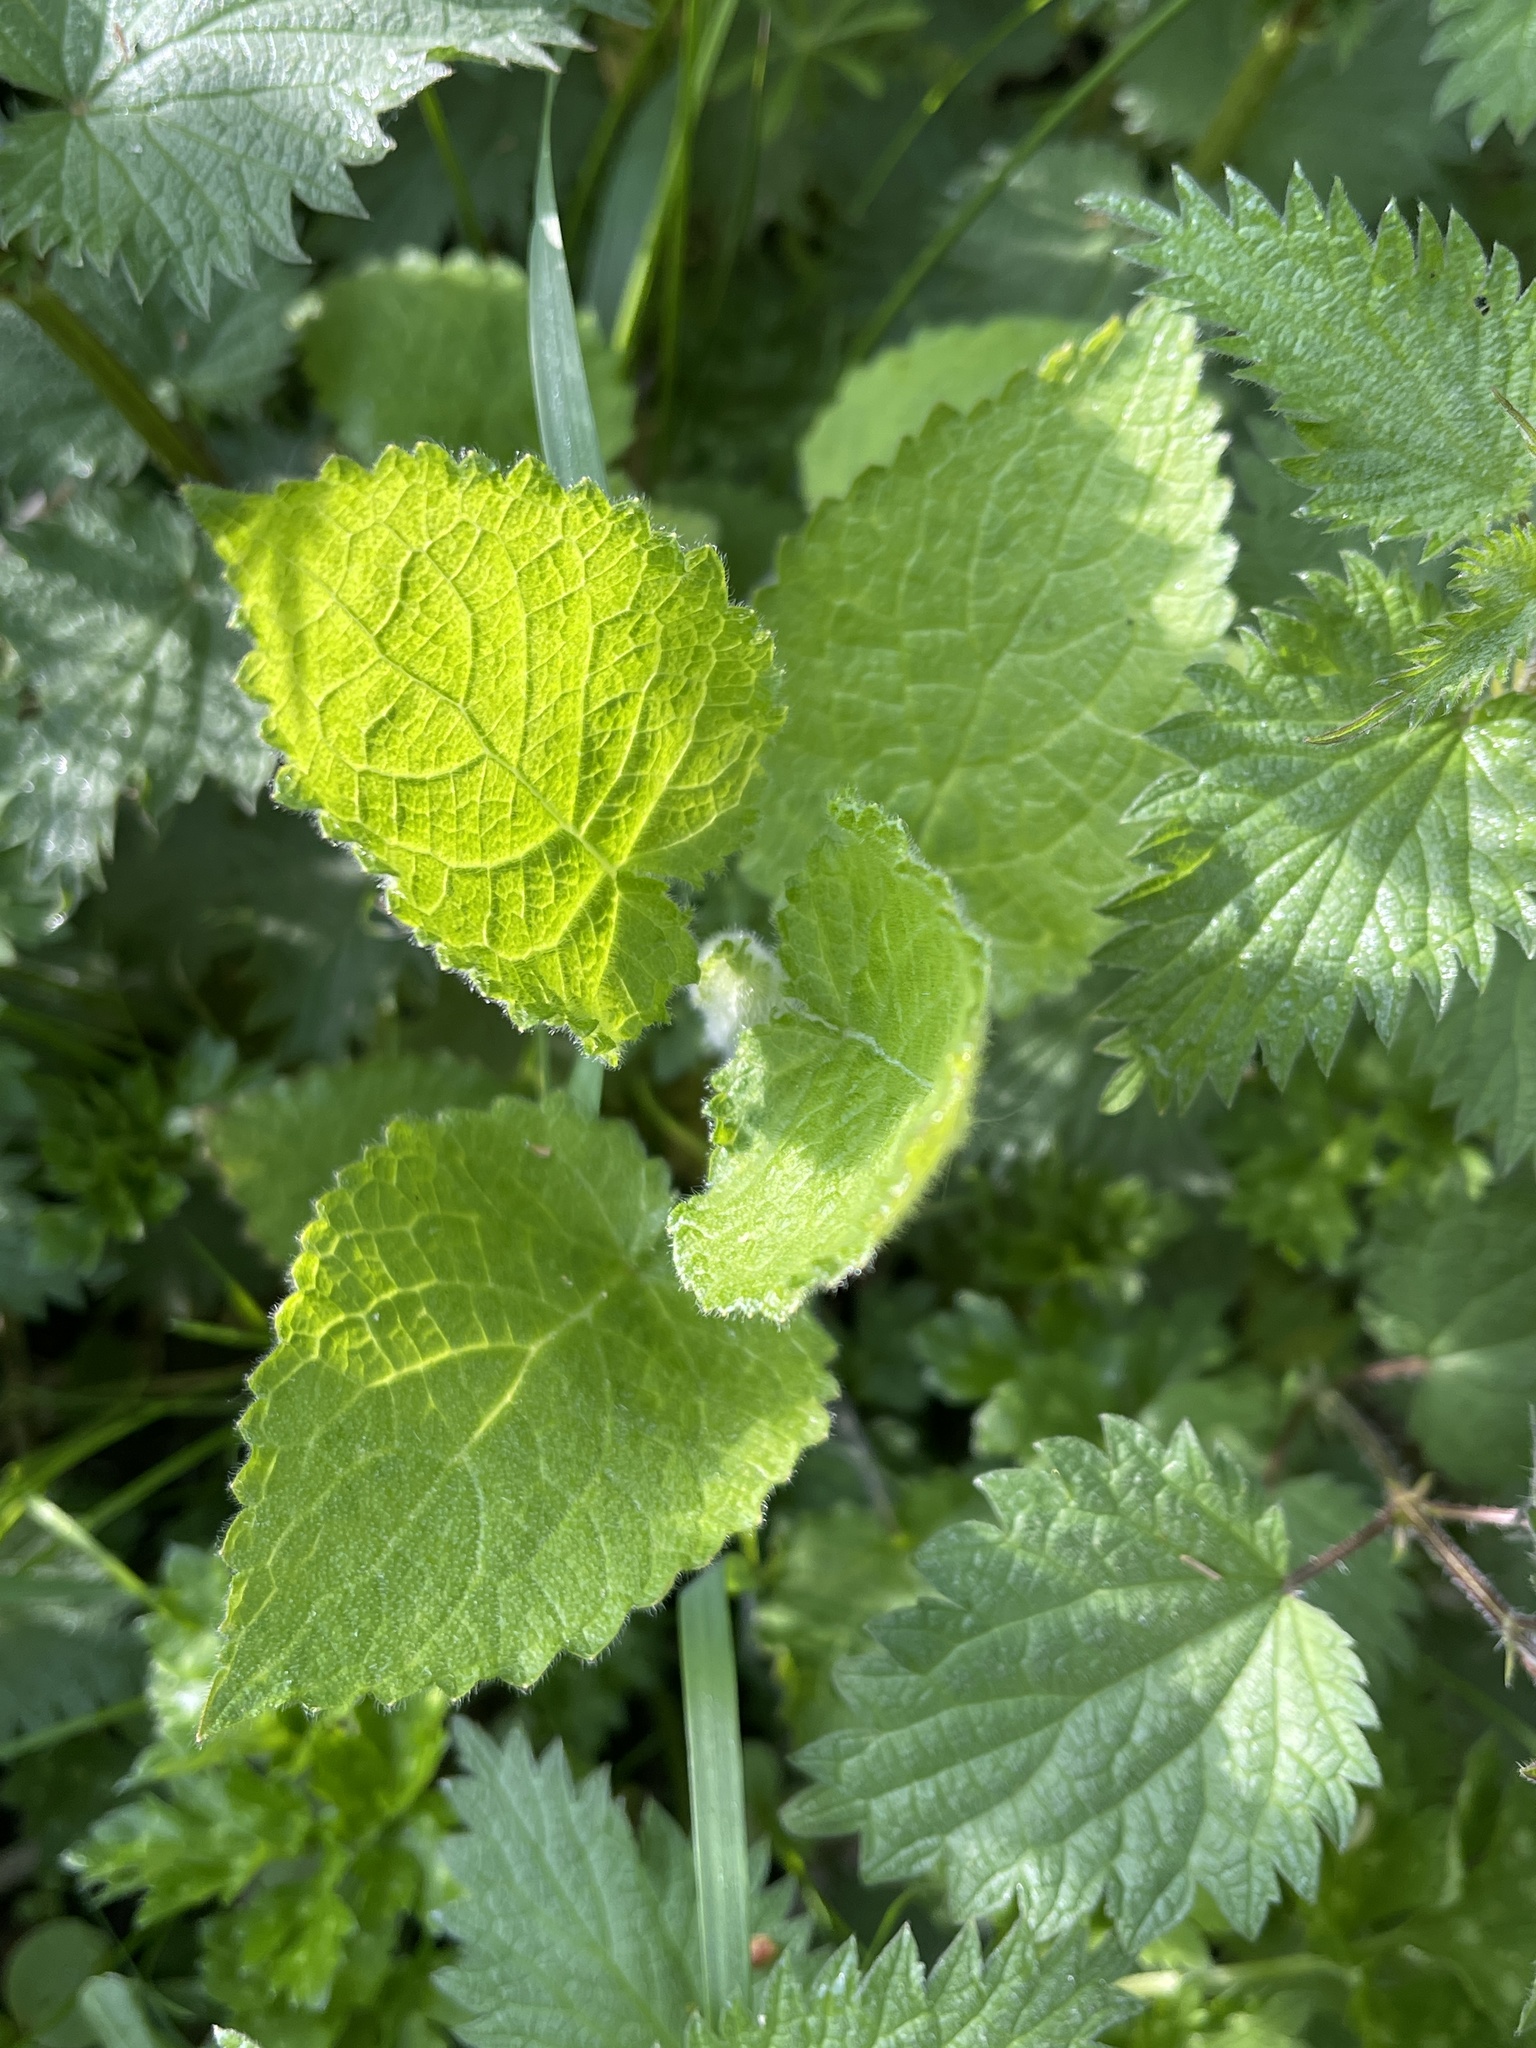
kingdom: Plantae
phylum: Tracheophyta
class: Magnoliopsida
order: Lamiales
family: Lamiaceae
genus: Stachys
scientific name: Stachys sylvatica
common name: Hedge woundwort
